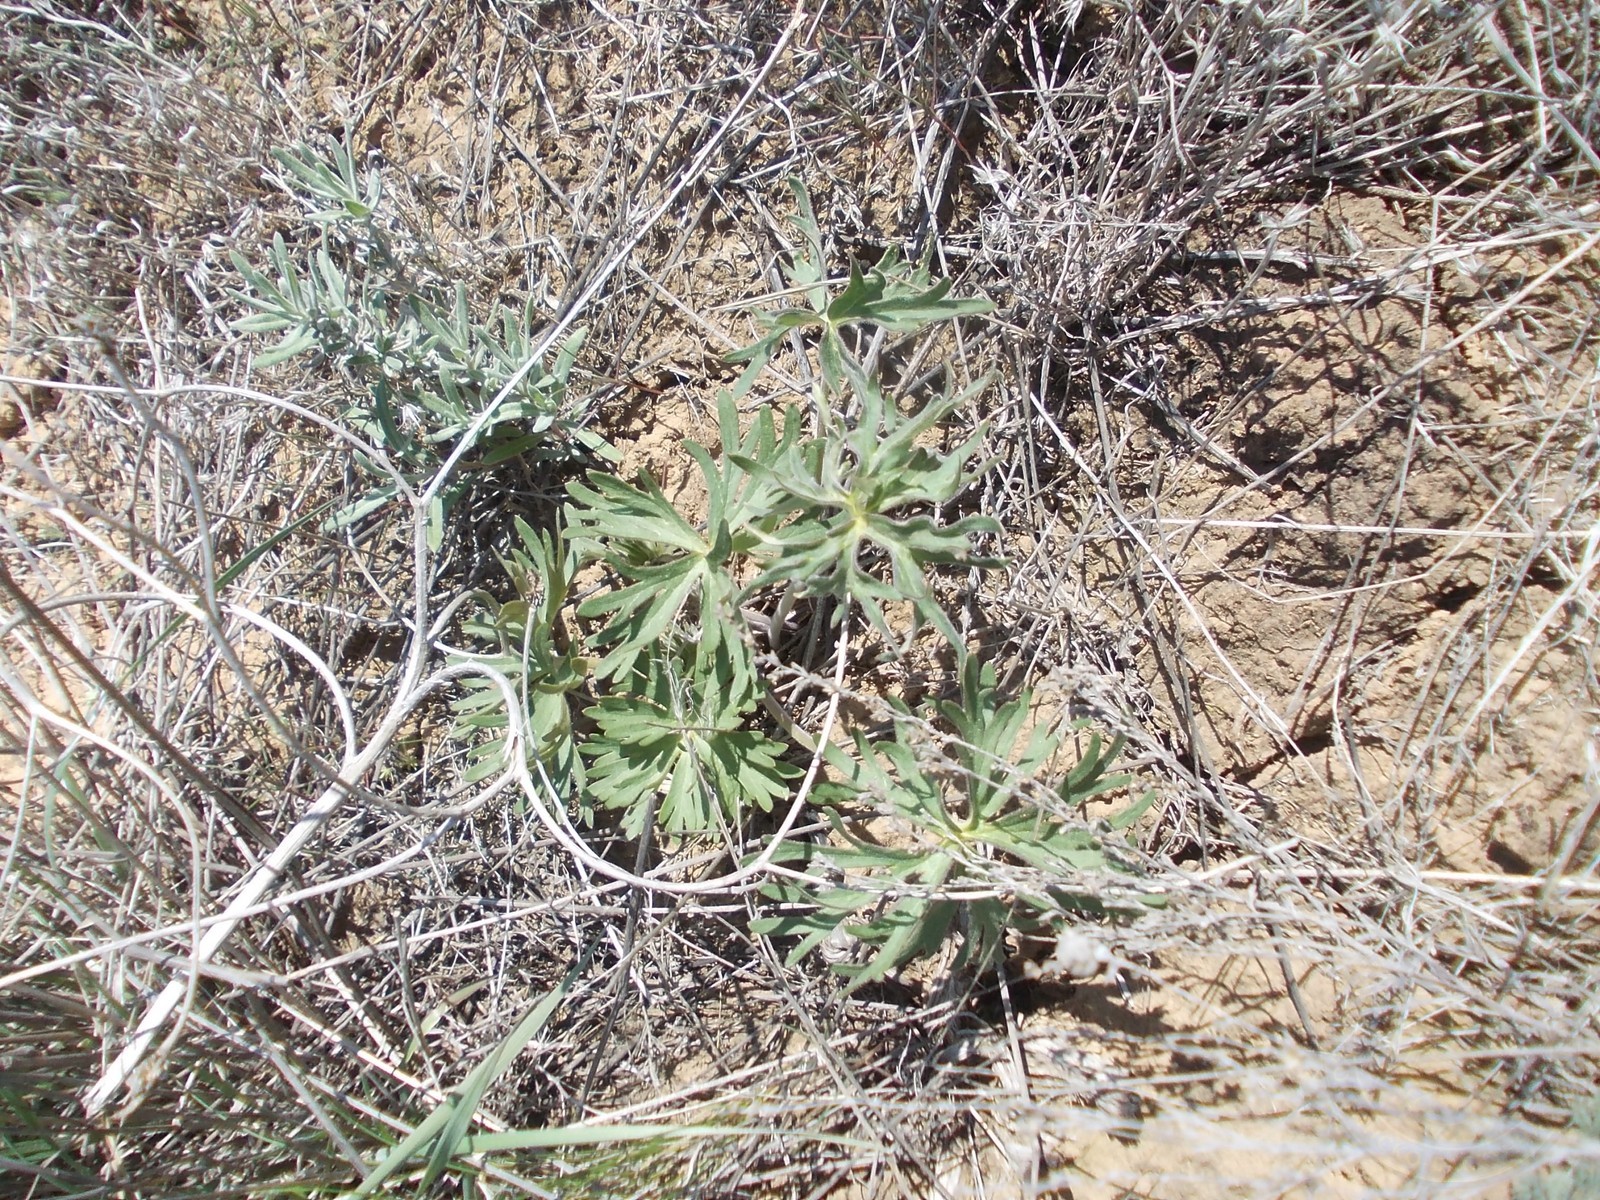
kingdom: Plantae
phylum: Tracheophyta
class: Magnoliopsida
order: Ranunculales
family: Ranunculaceae
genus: Delphinium
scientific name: Delphinium puniceum
